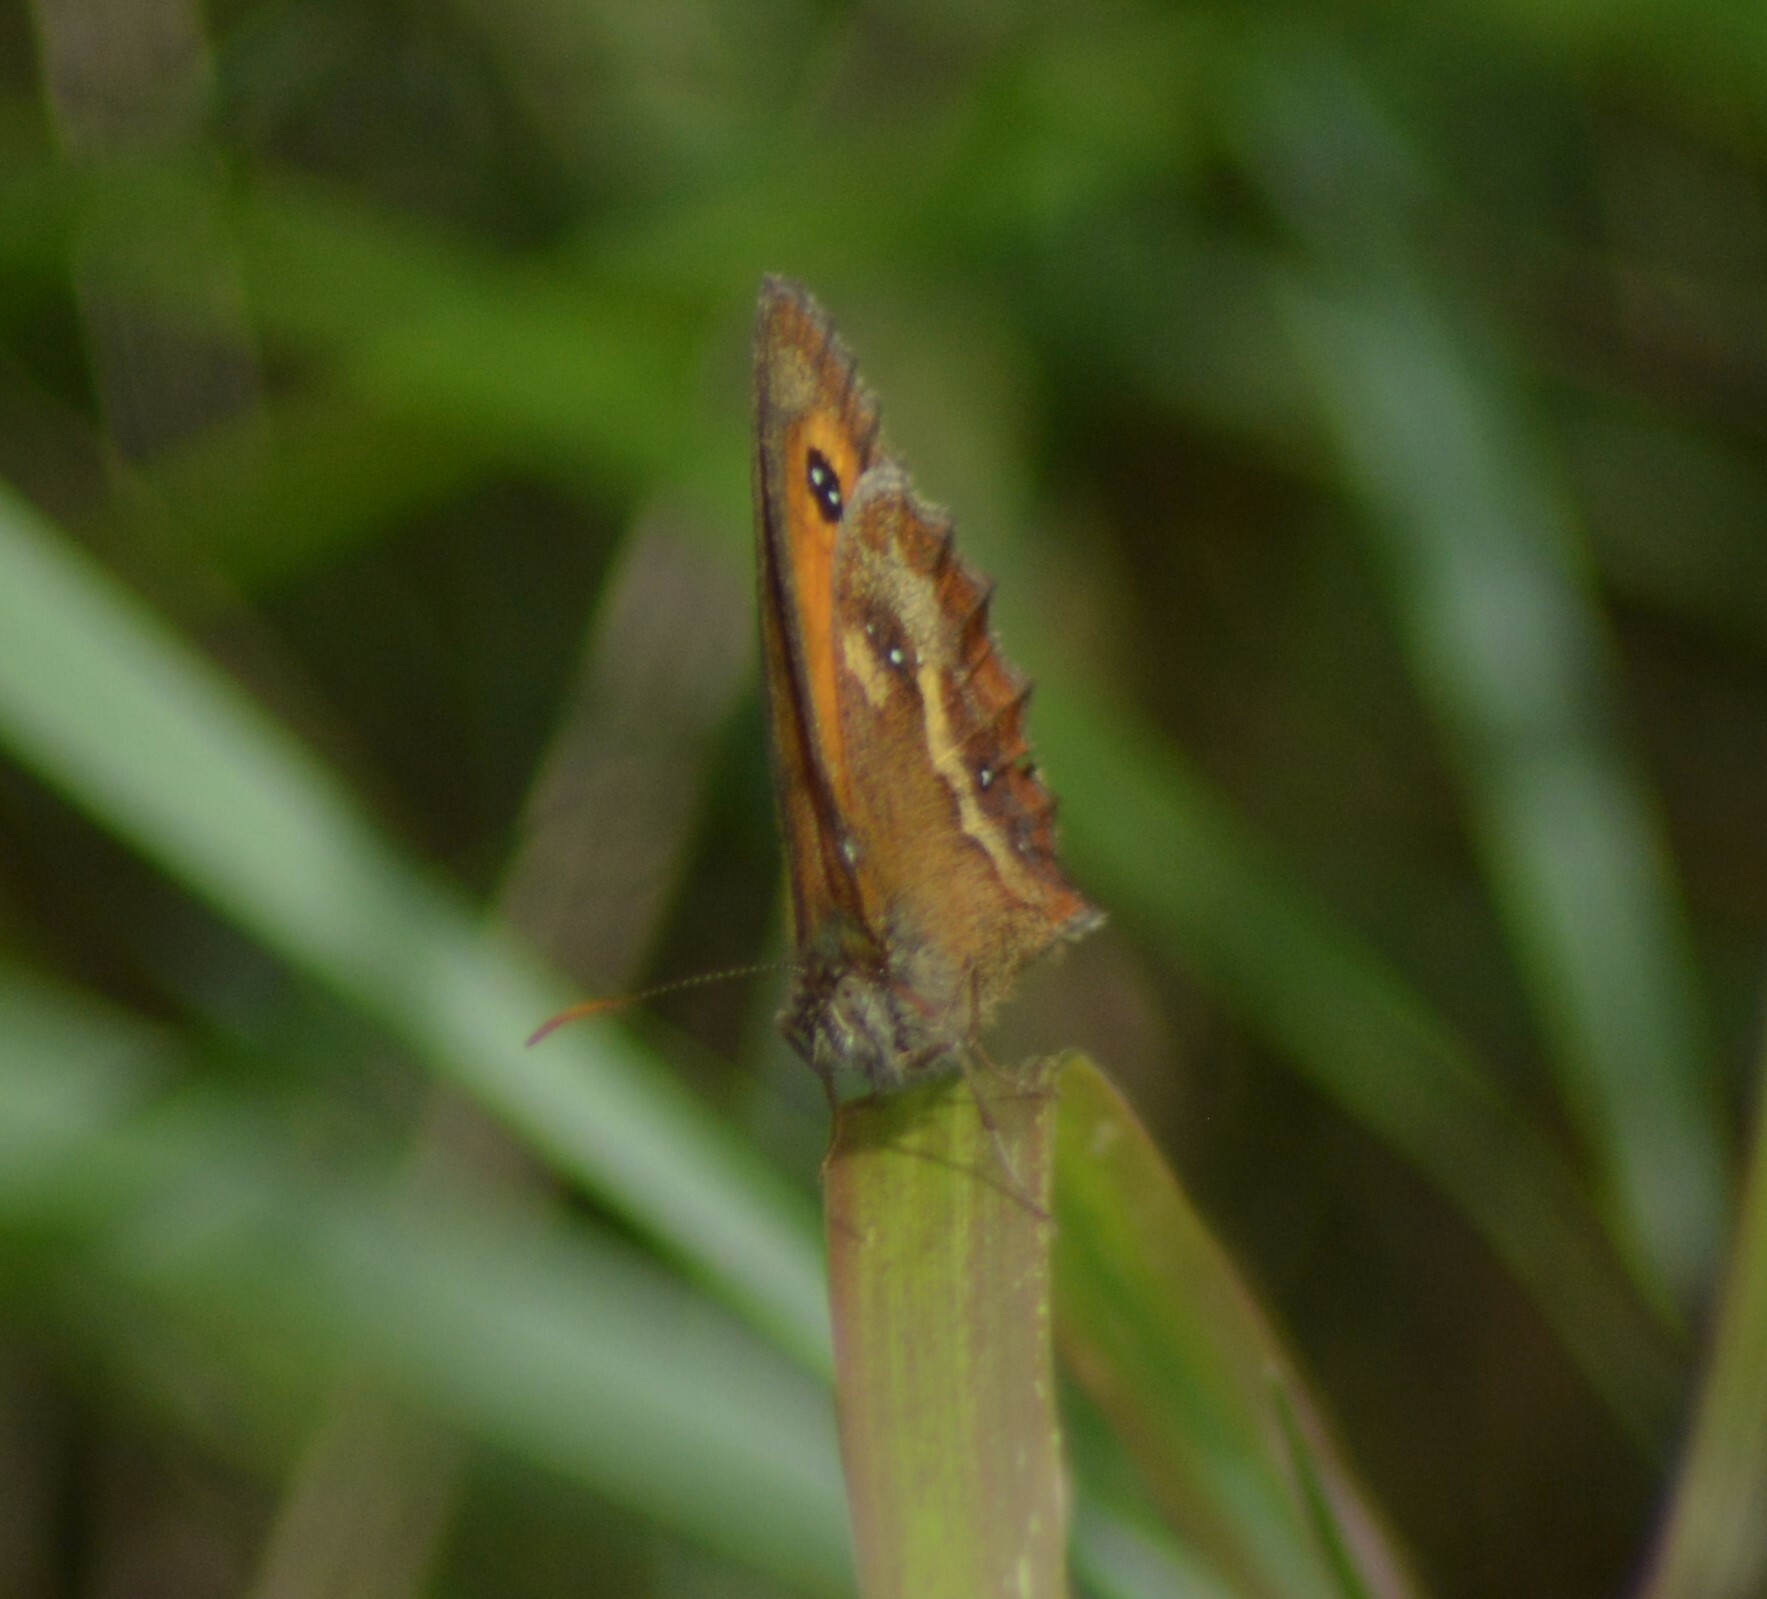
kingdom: Animalia
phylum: Arthropoda
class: Insecta
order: Lepidoptera
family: Nymphalidae
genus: Pyronia
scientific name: Pyronia tithonus
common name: Gatekeeper
